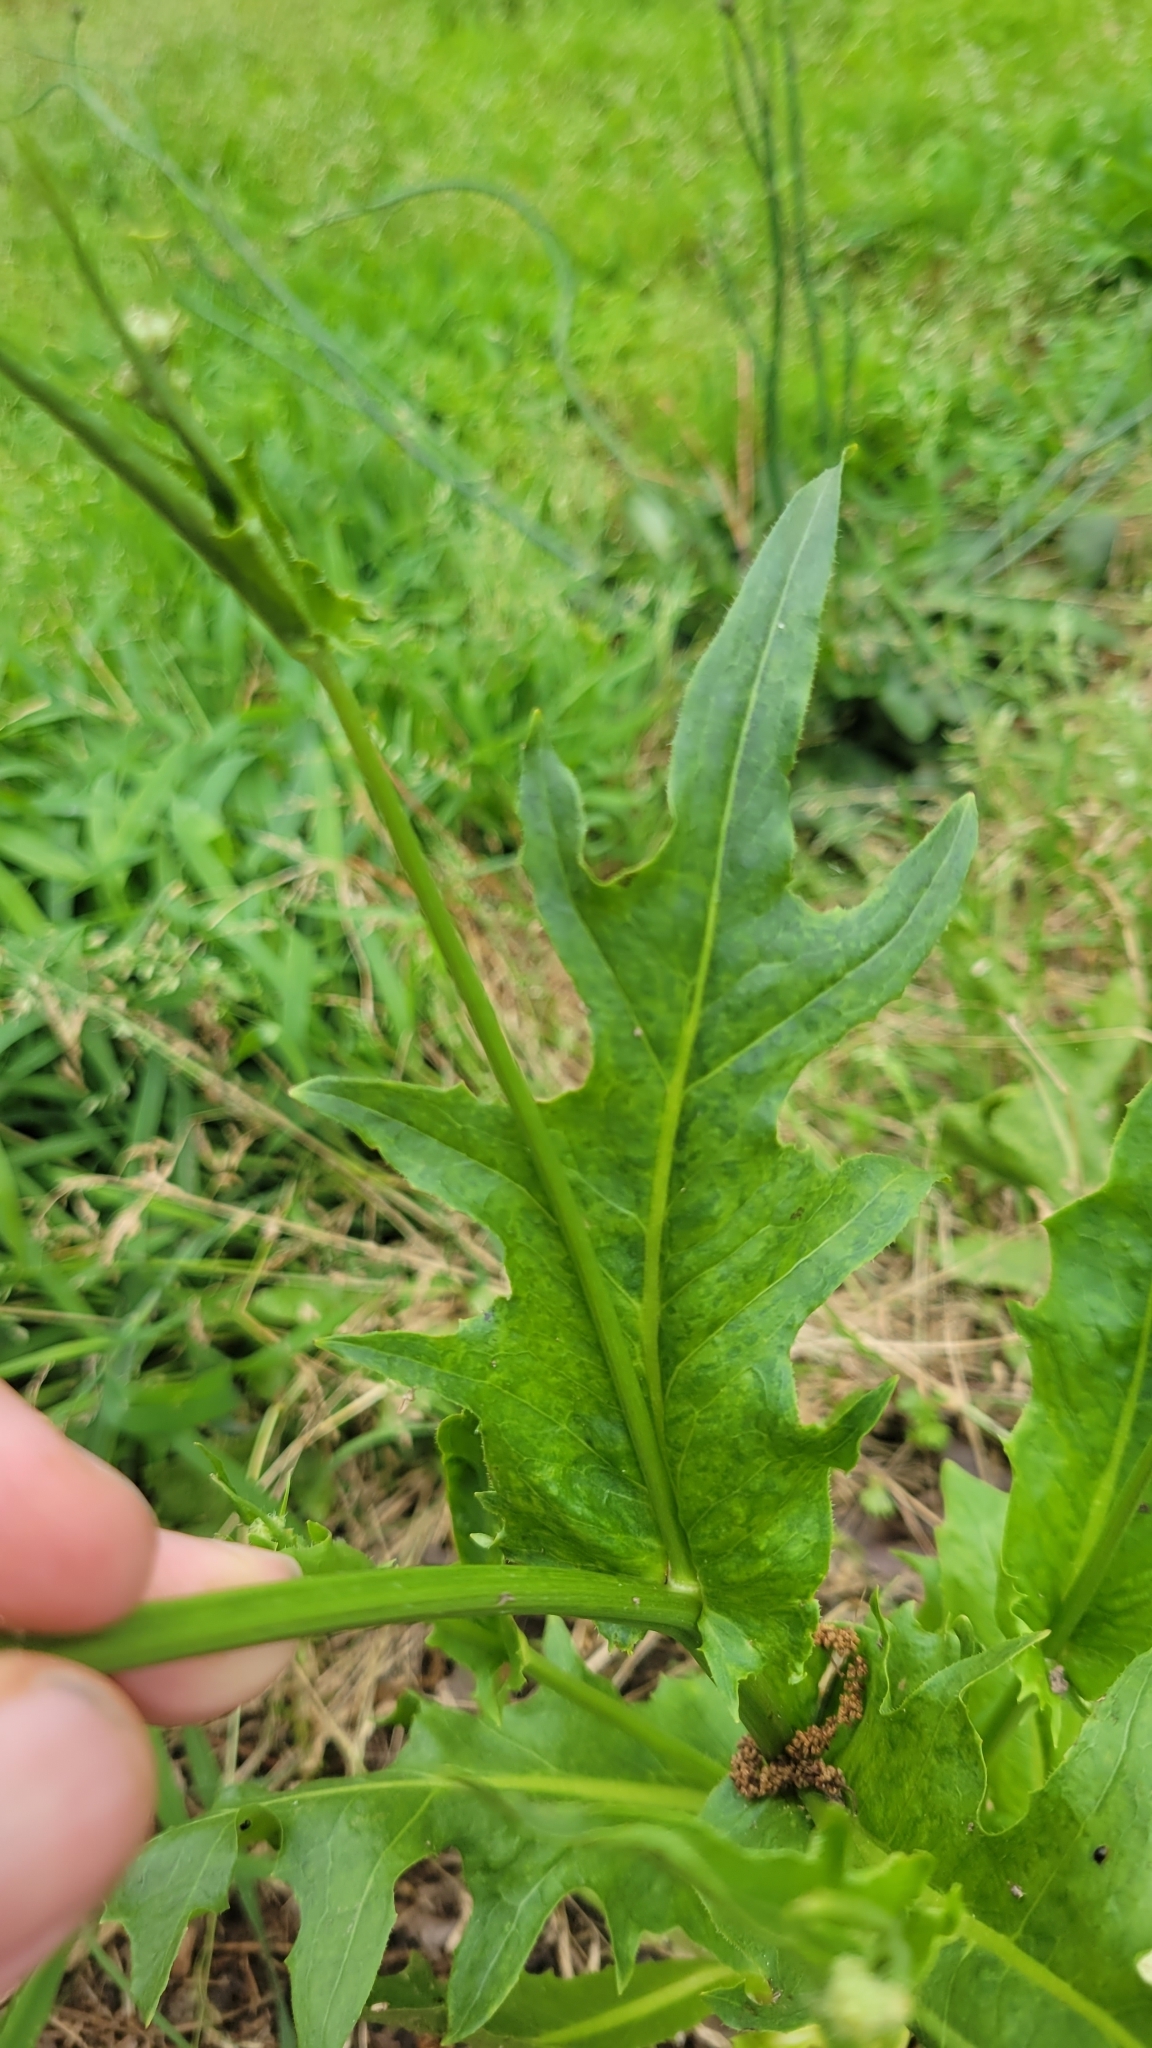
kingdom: Plantae
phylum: Tracheophyta
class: Magnoliopsida
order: Asterales
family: Asteraceae
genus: Hypochaeris
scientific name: Hypochaeris chillensis
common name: Brazilian cat's ear
